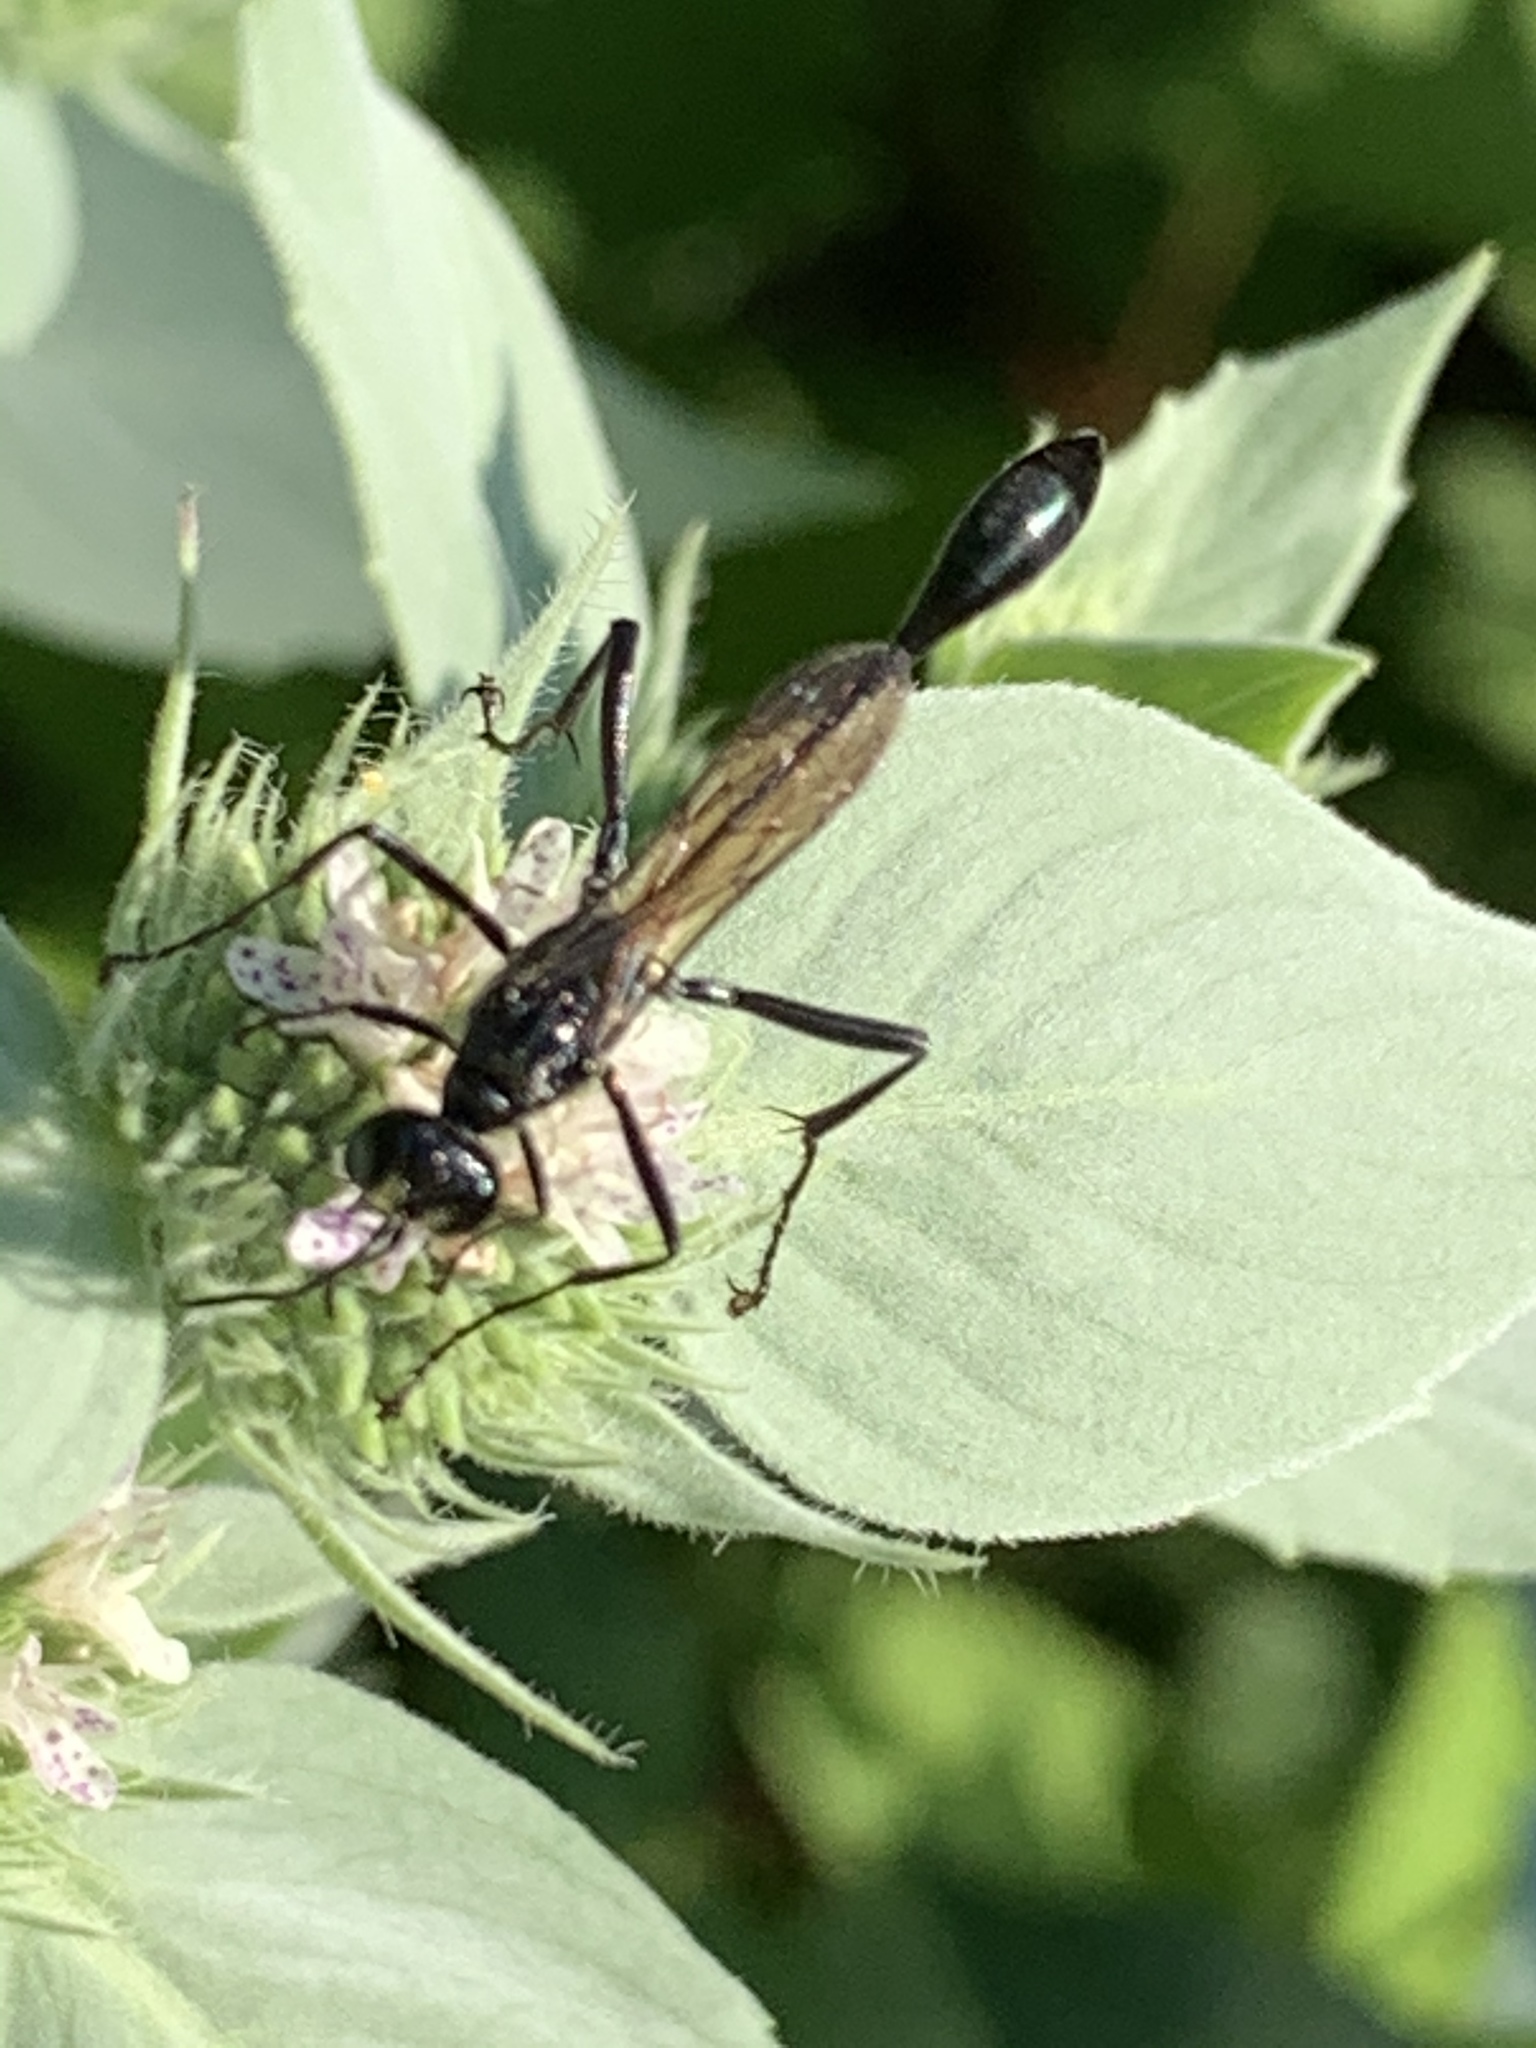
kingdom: Animalia
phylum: Arthropoda
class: Insecta
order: Hymenoptera
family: Sphecidae
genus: Eremnophila
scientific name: Eremnophila aureonotata
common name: Gold-marked thread-waisted wasp
